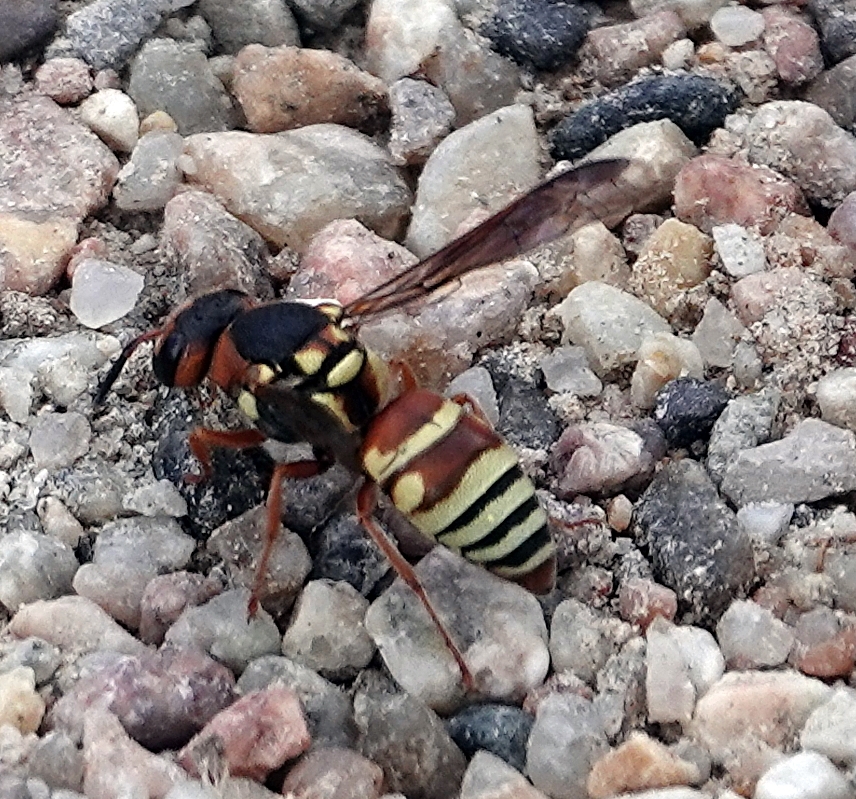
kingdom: Animalia
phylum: Arthropoda
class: Insecta
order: Hymenoptera
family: Eumenidae
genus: Euodynerus
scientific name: Euodynerus annulatus
